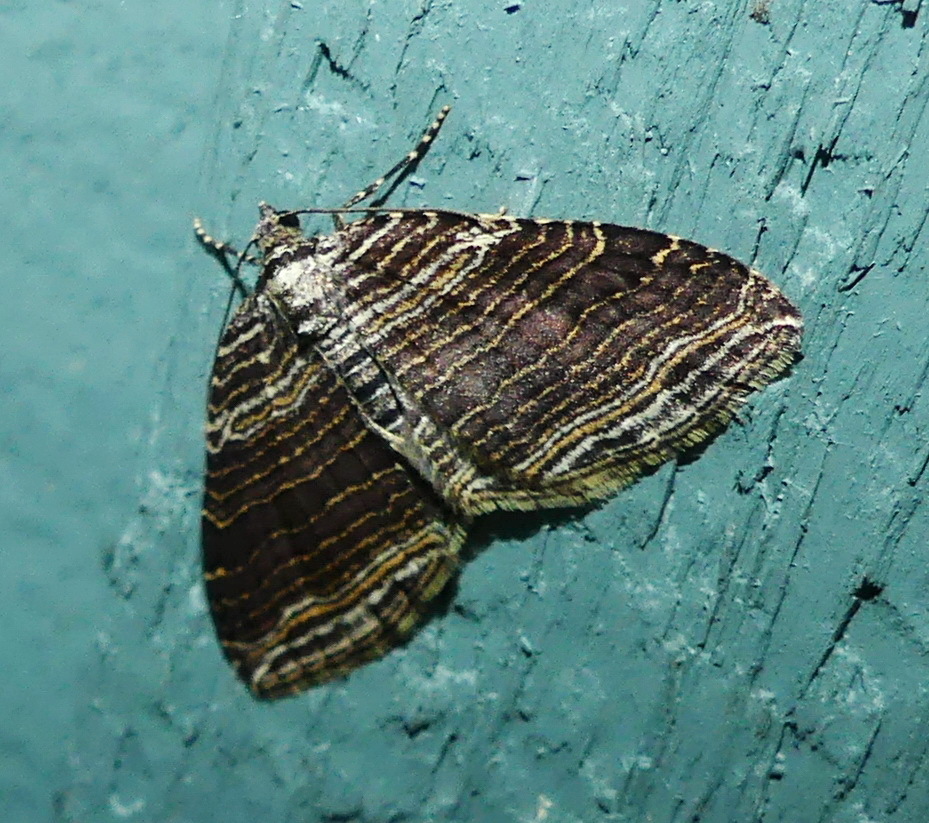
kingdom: Animalia
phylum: Arthropoda
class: Insecta
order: Lepidoptera
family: Geometridae
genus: Anticlea
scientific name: Anticlea multiferata
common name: Many-lined carpet
